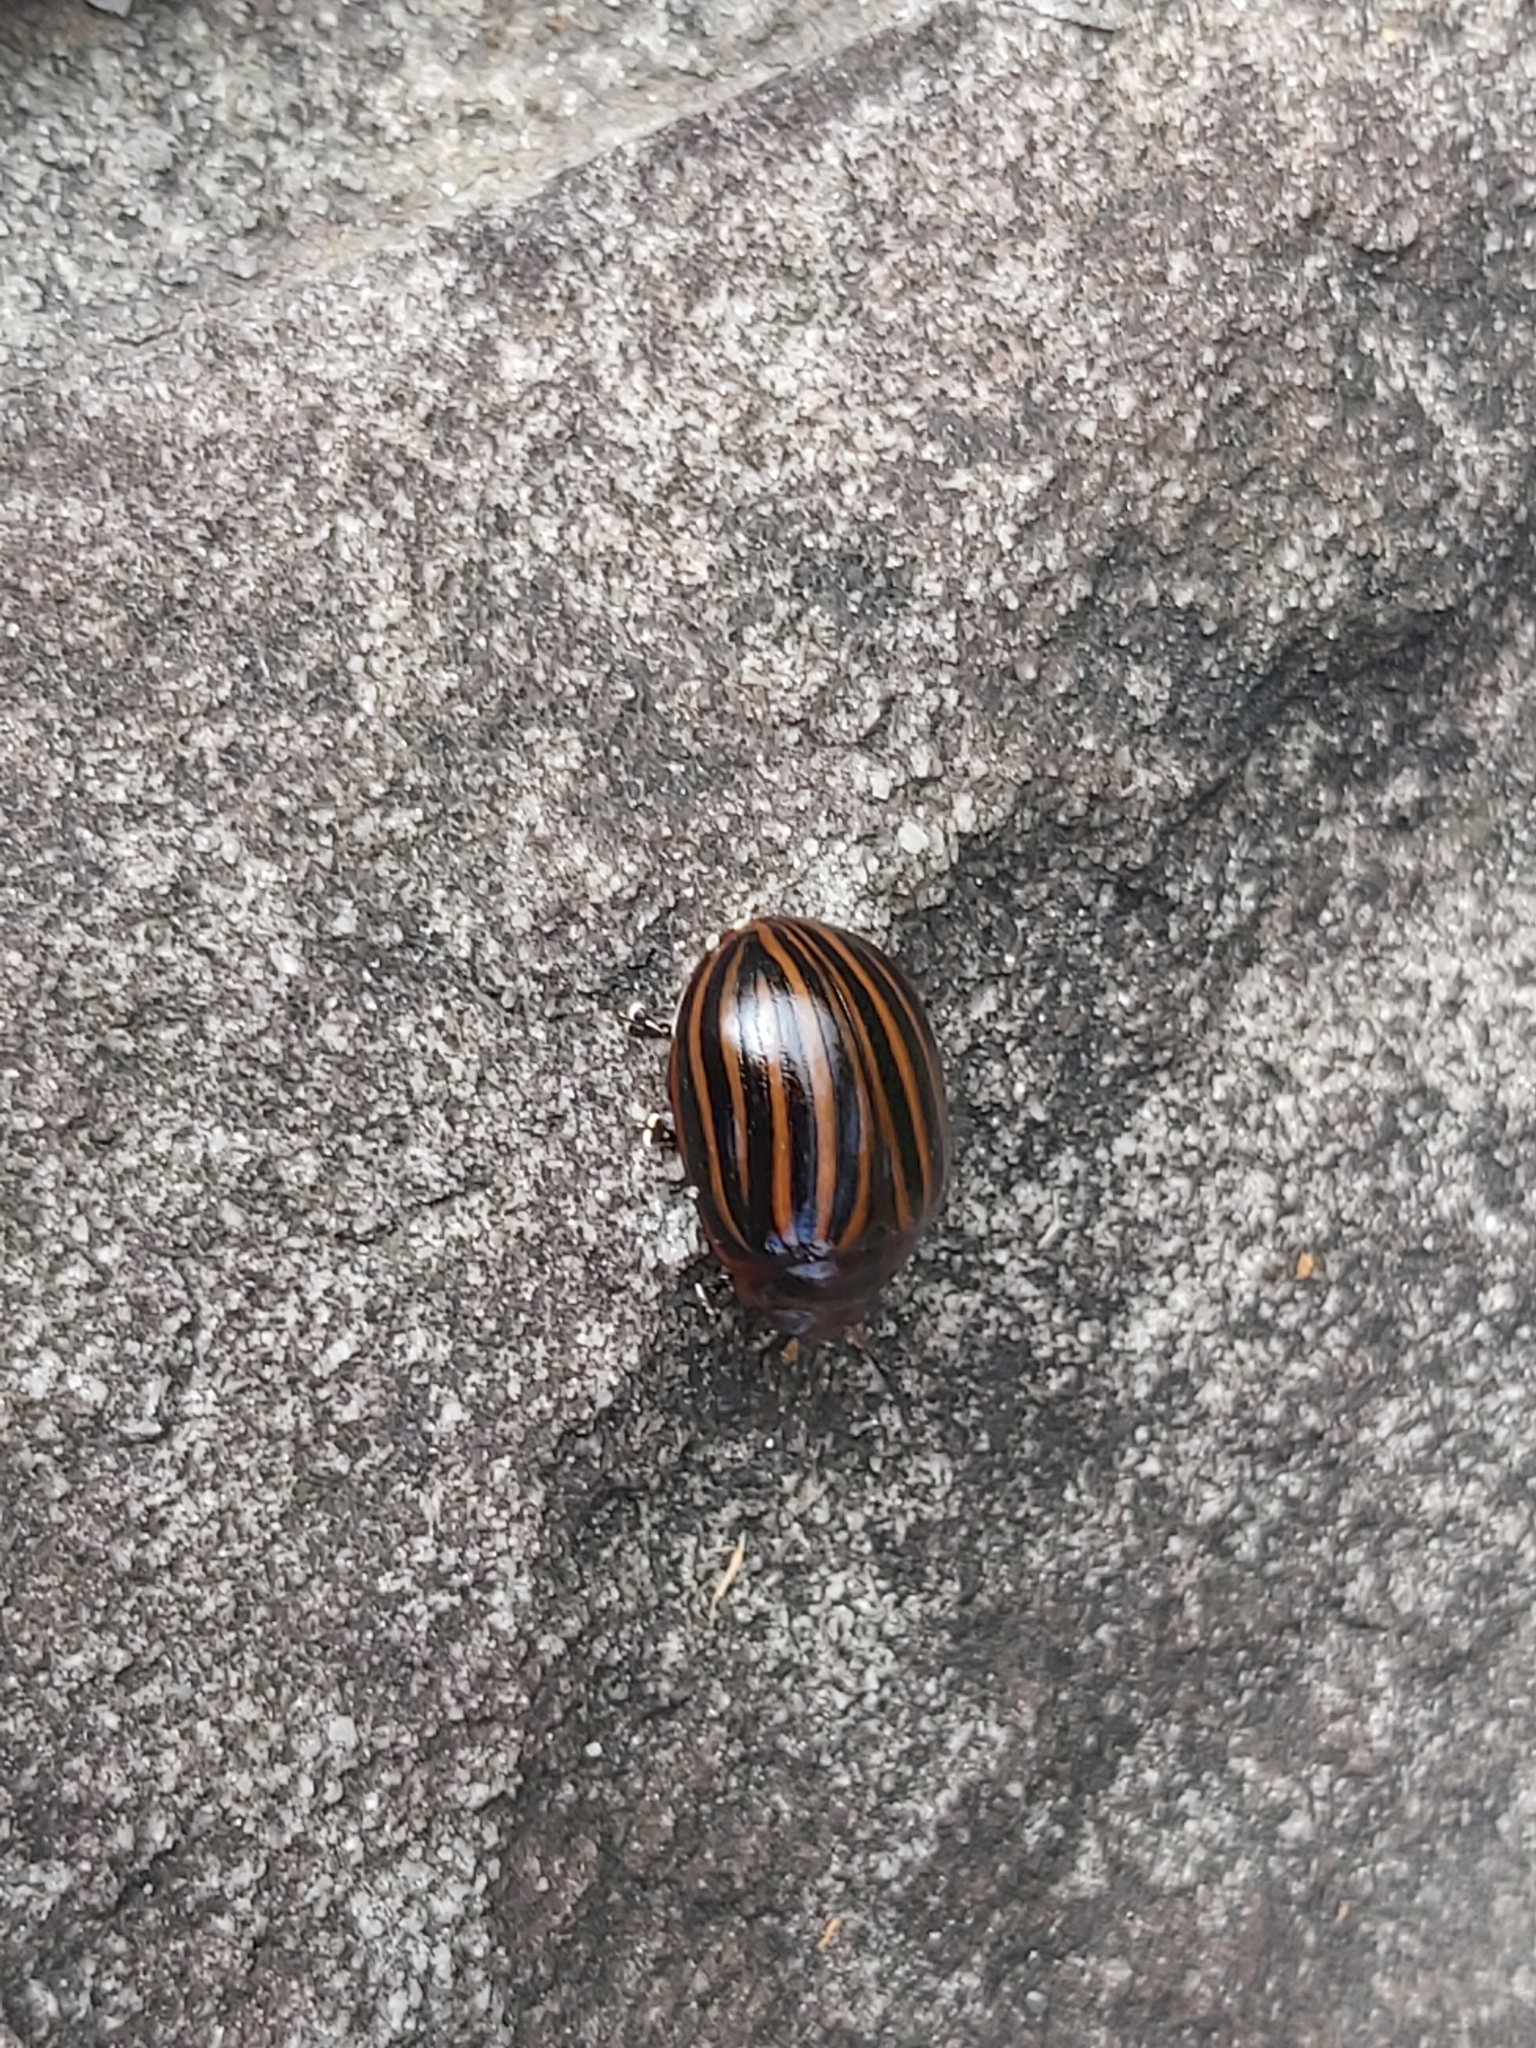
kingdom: Animalia
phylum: Arthropoda
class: Insecta
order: Coleoptera
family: Chrysomelidae
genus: Paropsisterna
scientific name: Paropsisterna
